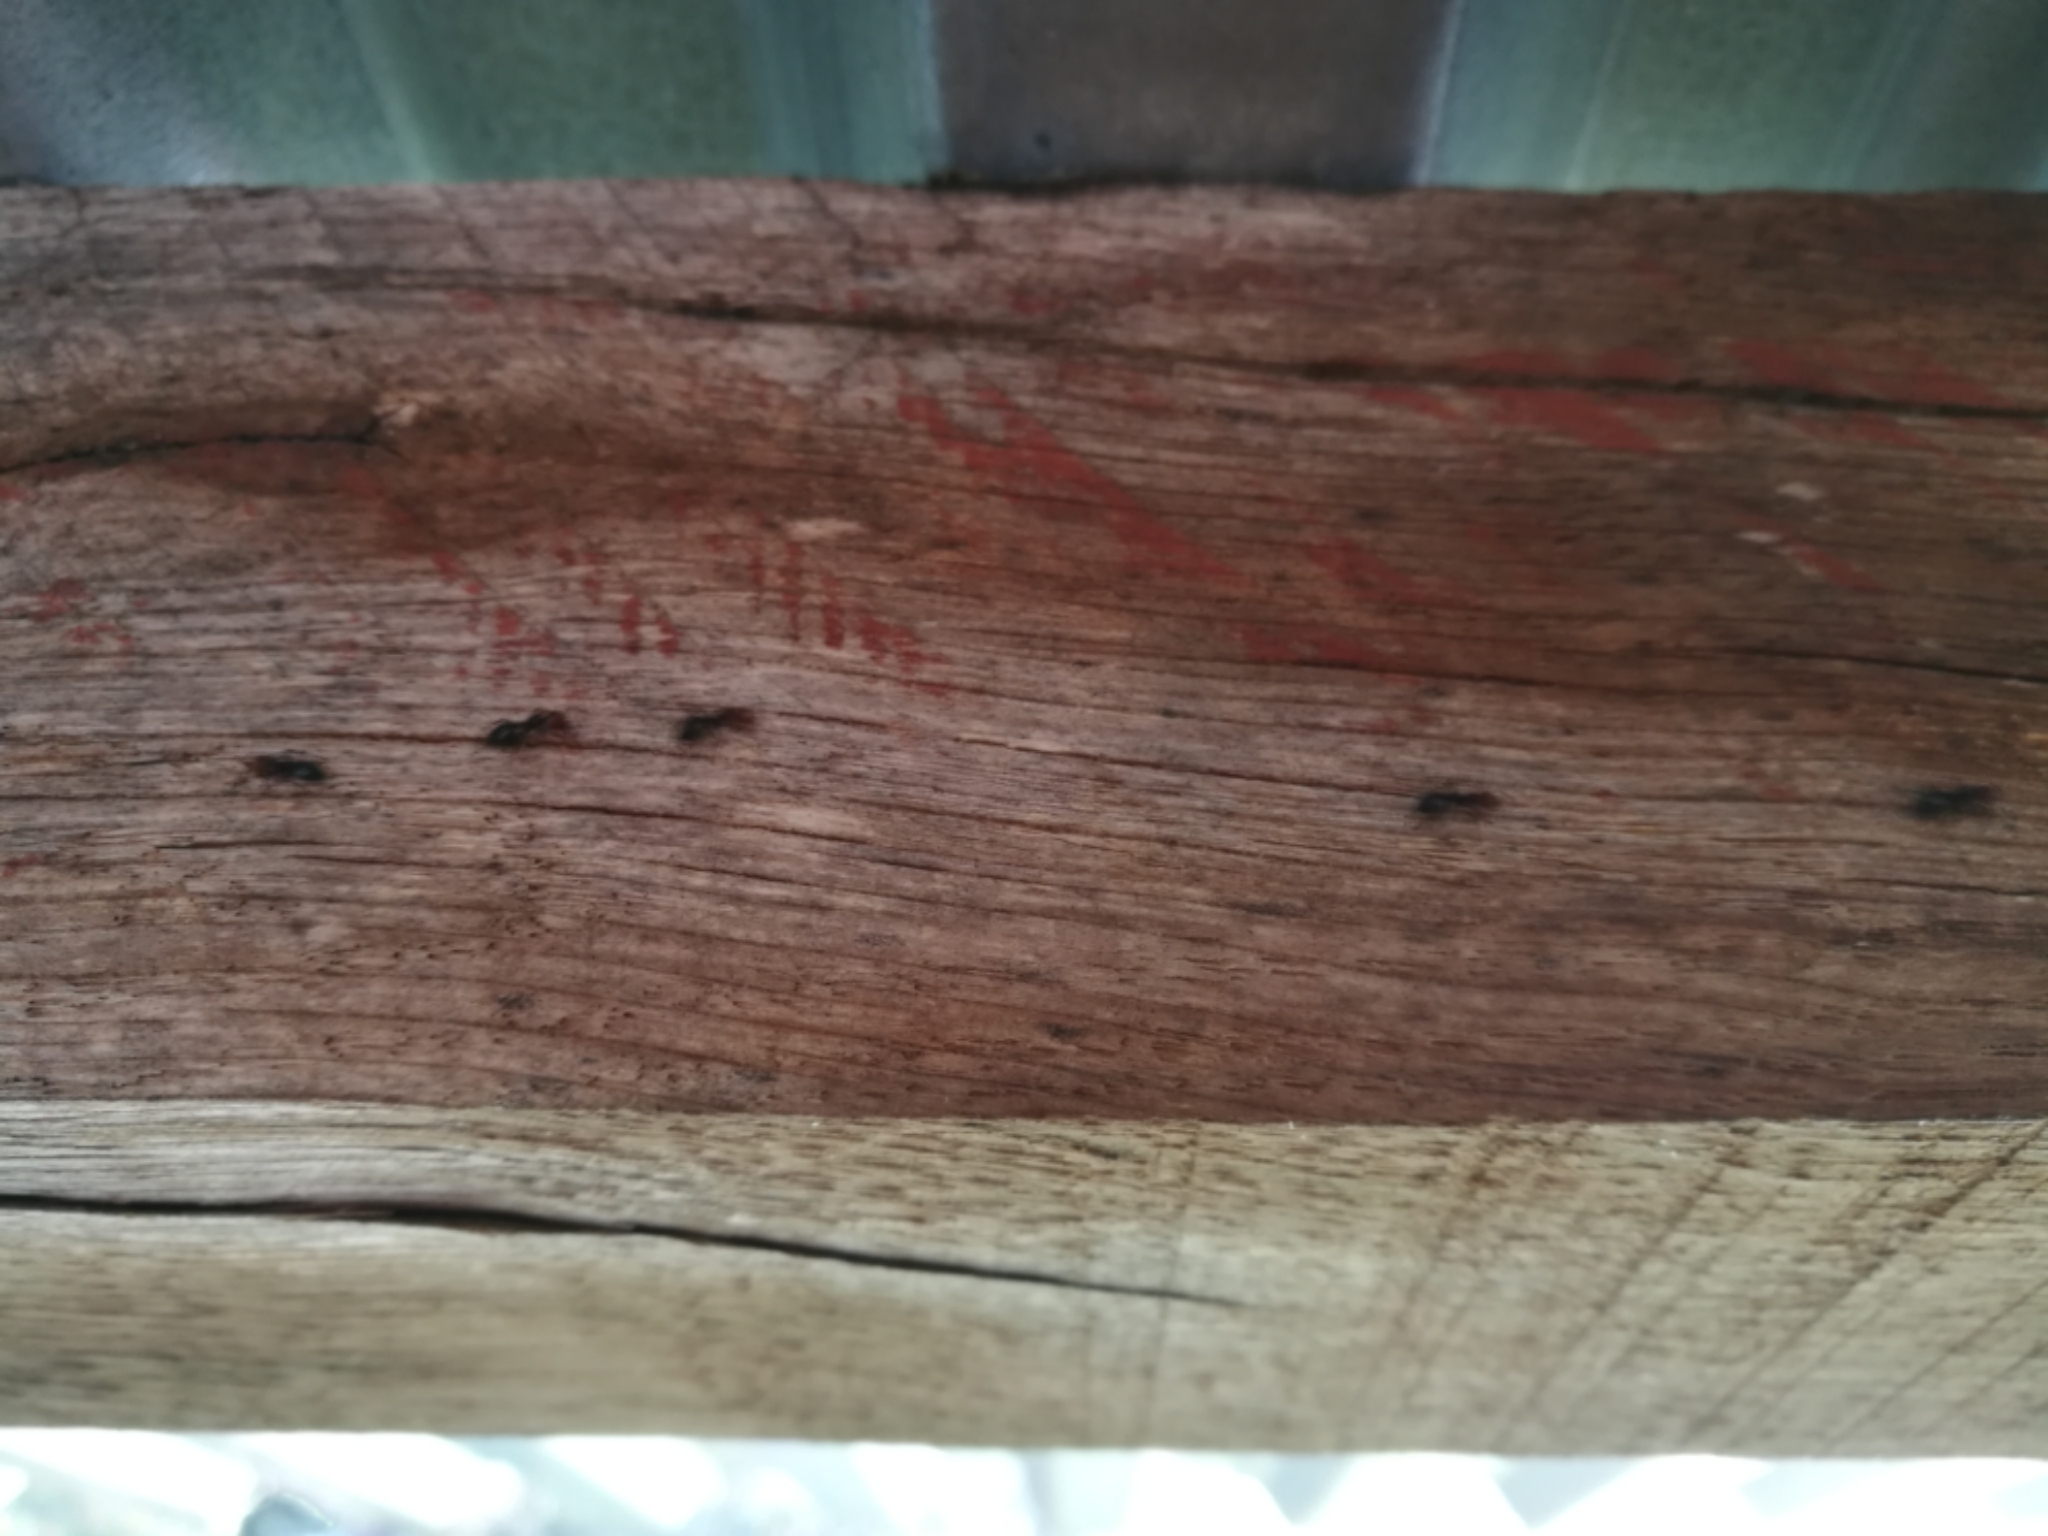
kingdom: Animalia
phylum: Arthropoda
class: Insecta
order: Hymenoptera
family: Formicidae
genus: Crematogaster
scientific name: Crematogaster scutellaris
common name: Fourmi du liège
